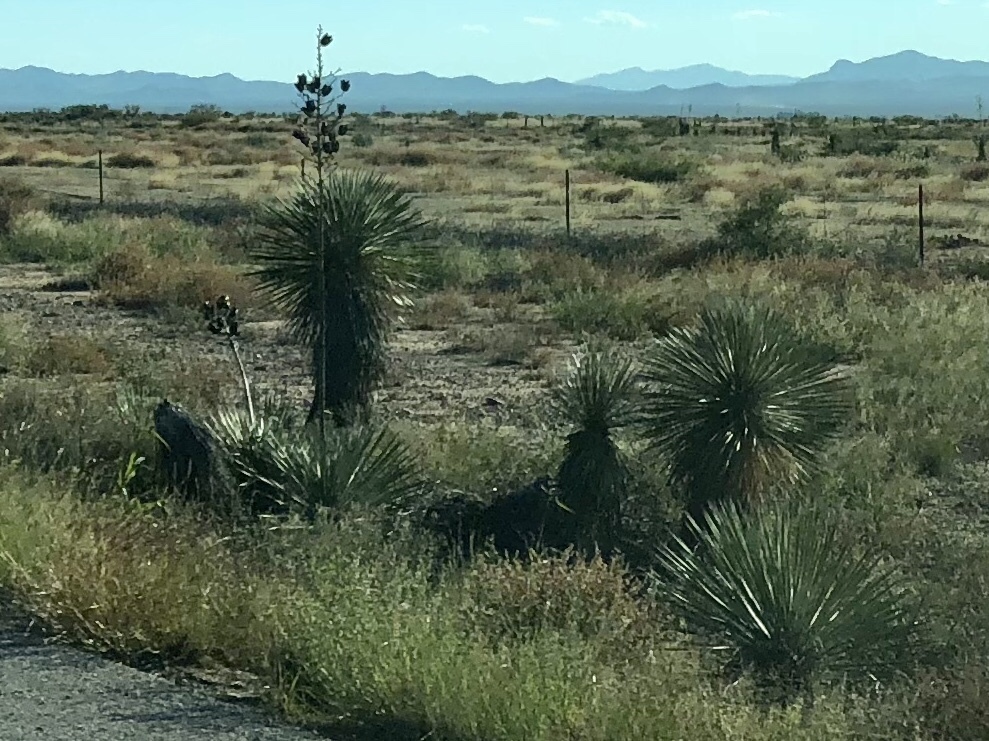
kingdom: Plantae
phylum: Tracheophyta
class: Liliopsida
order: Asparagales
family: Asparagaceae
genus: Yucca
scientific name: Yucca elata
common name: Palmella
